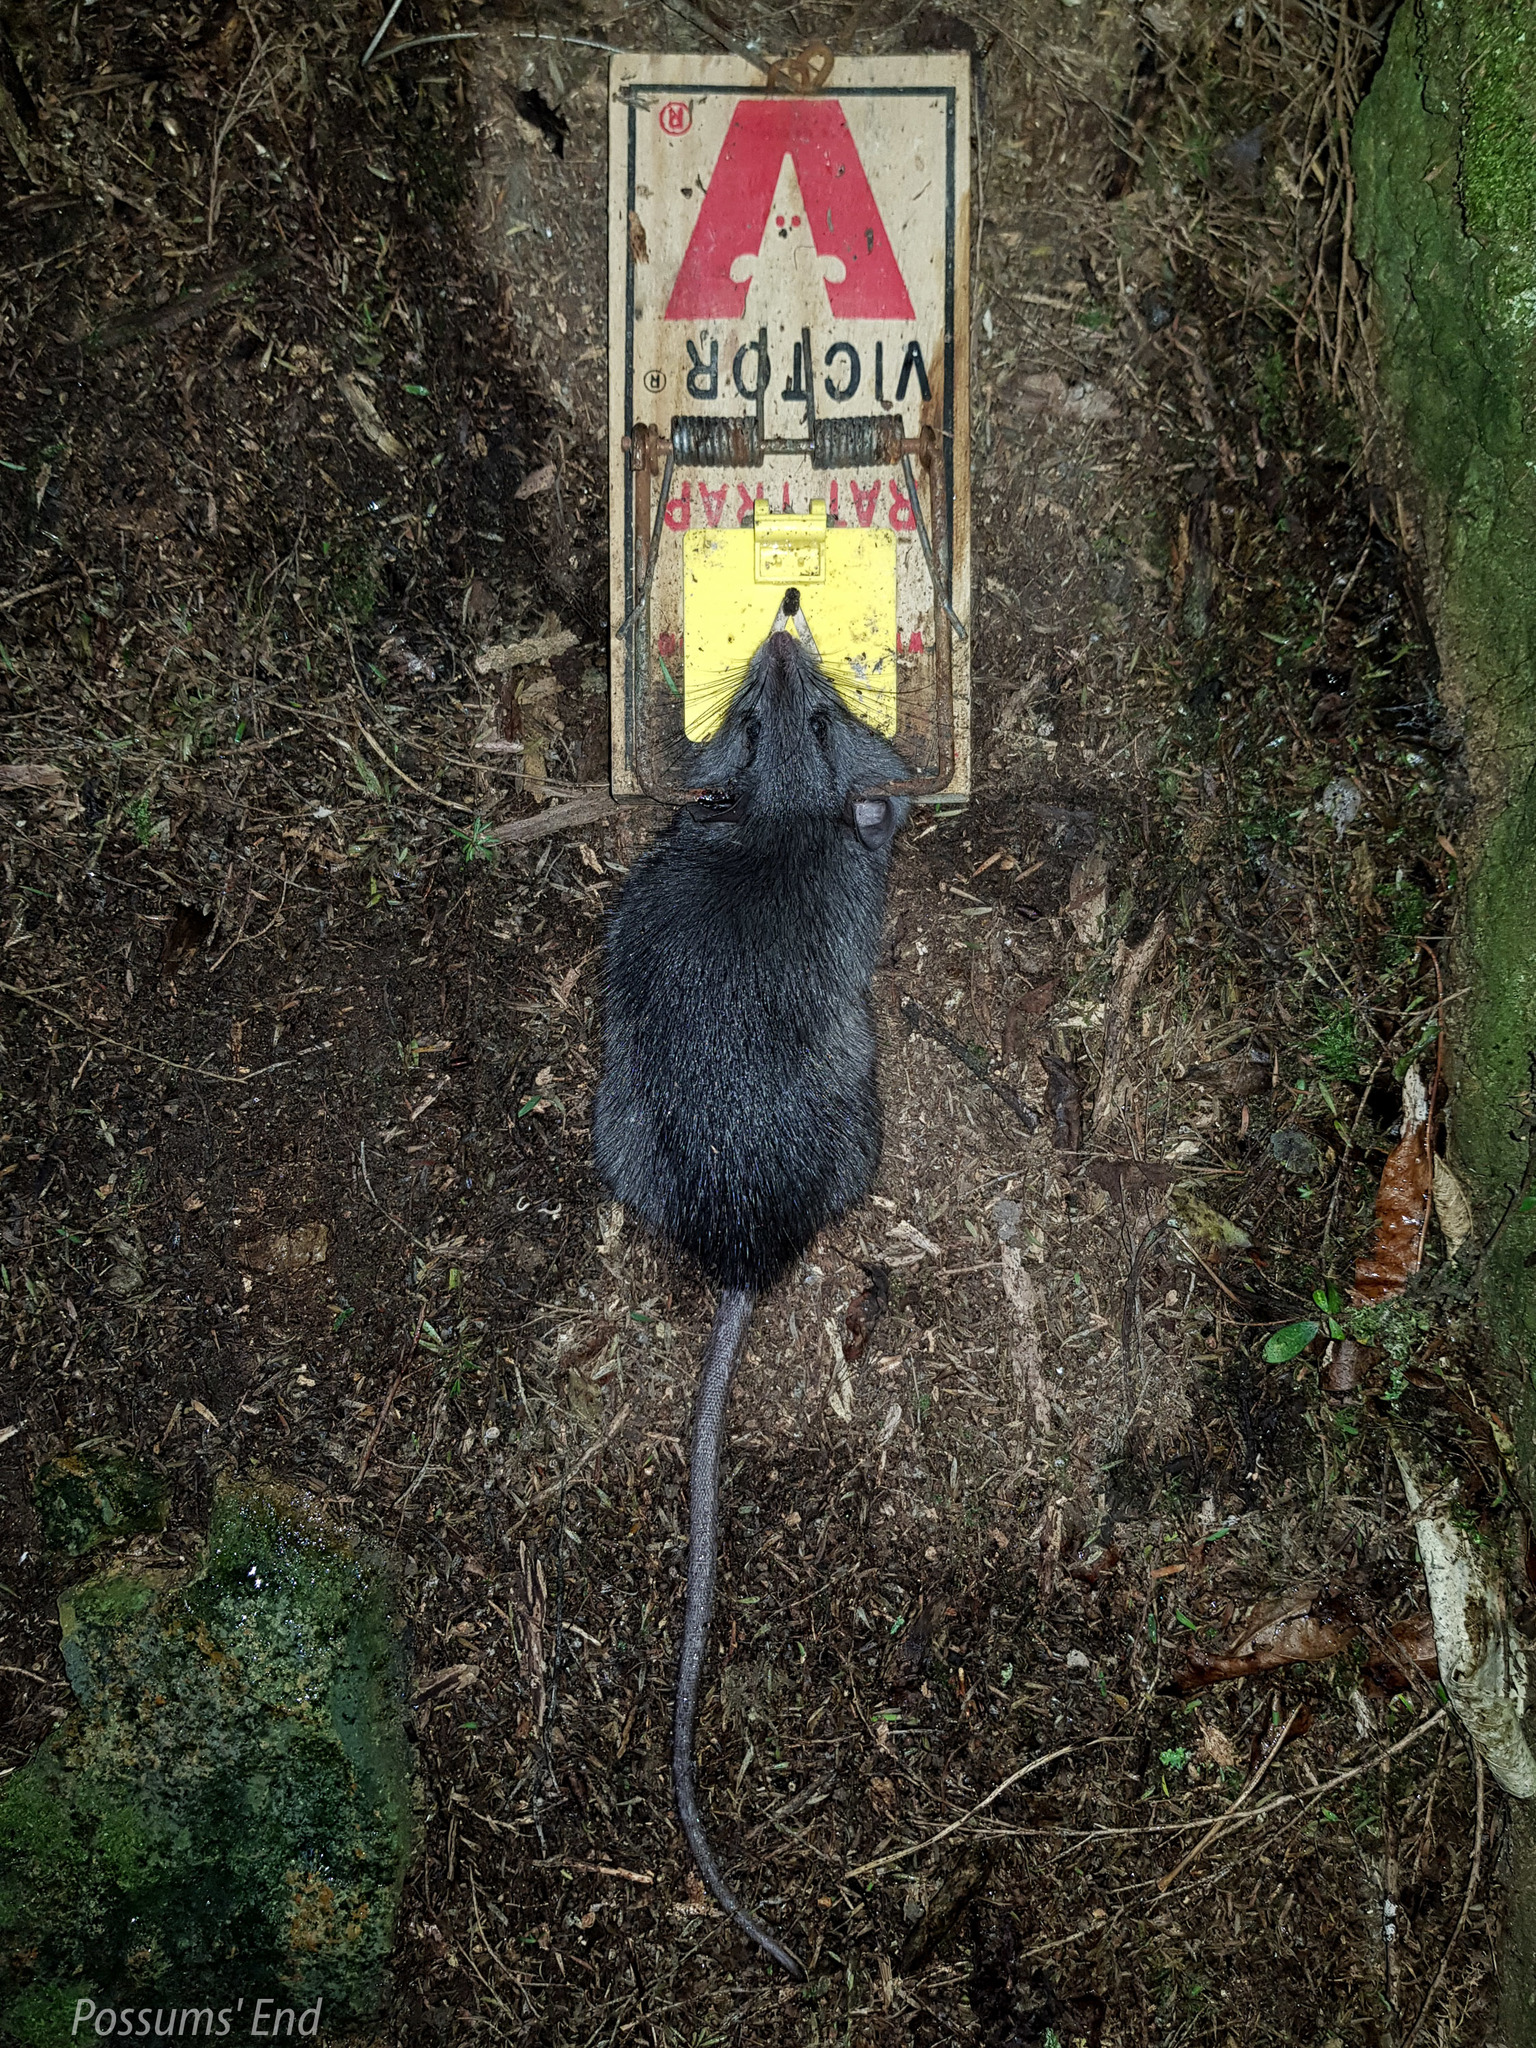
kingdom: Animalia
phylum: Chordata
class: Mammalia
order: Rodentia
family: Muridae
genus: Rattus
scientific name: Rattus rattus
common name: Black rat
